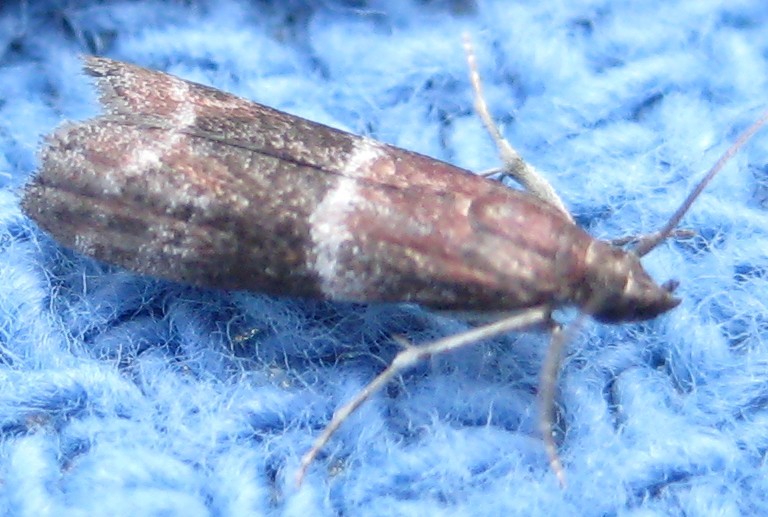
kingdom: Animalia
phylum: Arthropoda
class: Insecta
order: Lepidoptera
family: Pyralidae
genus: Moodna
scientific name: Moodna ostrinella
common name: Darker moodna moth
